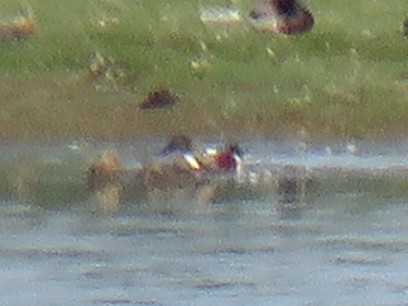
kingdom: Animalia
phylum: Chordata
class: Aves
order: Anseriformes
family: Anatidae
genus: Spatula
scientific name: Spatula clypeata
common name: Northern shoveler
